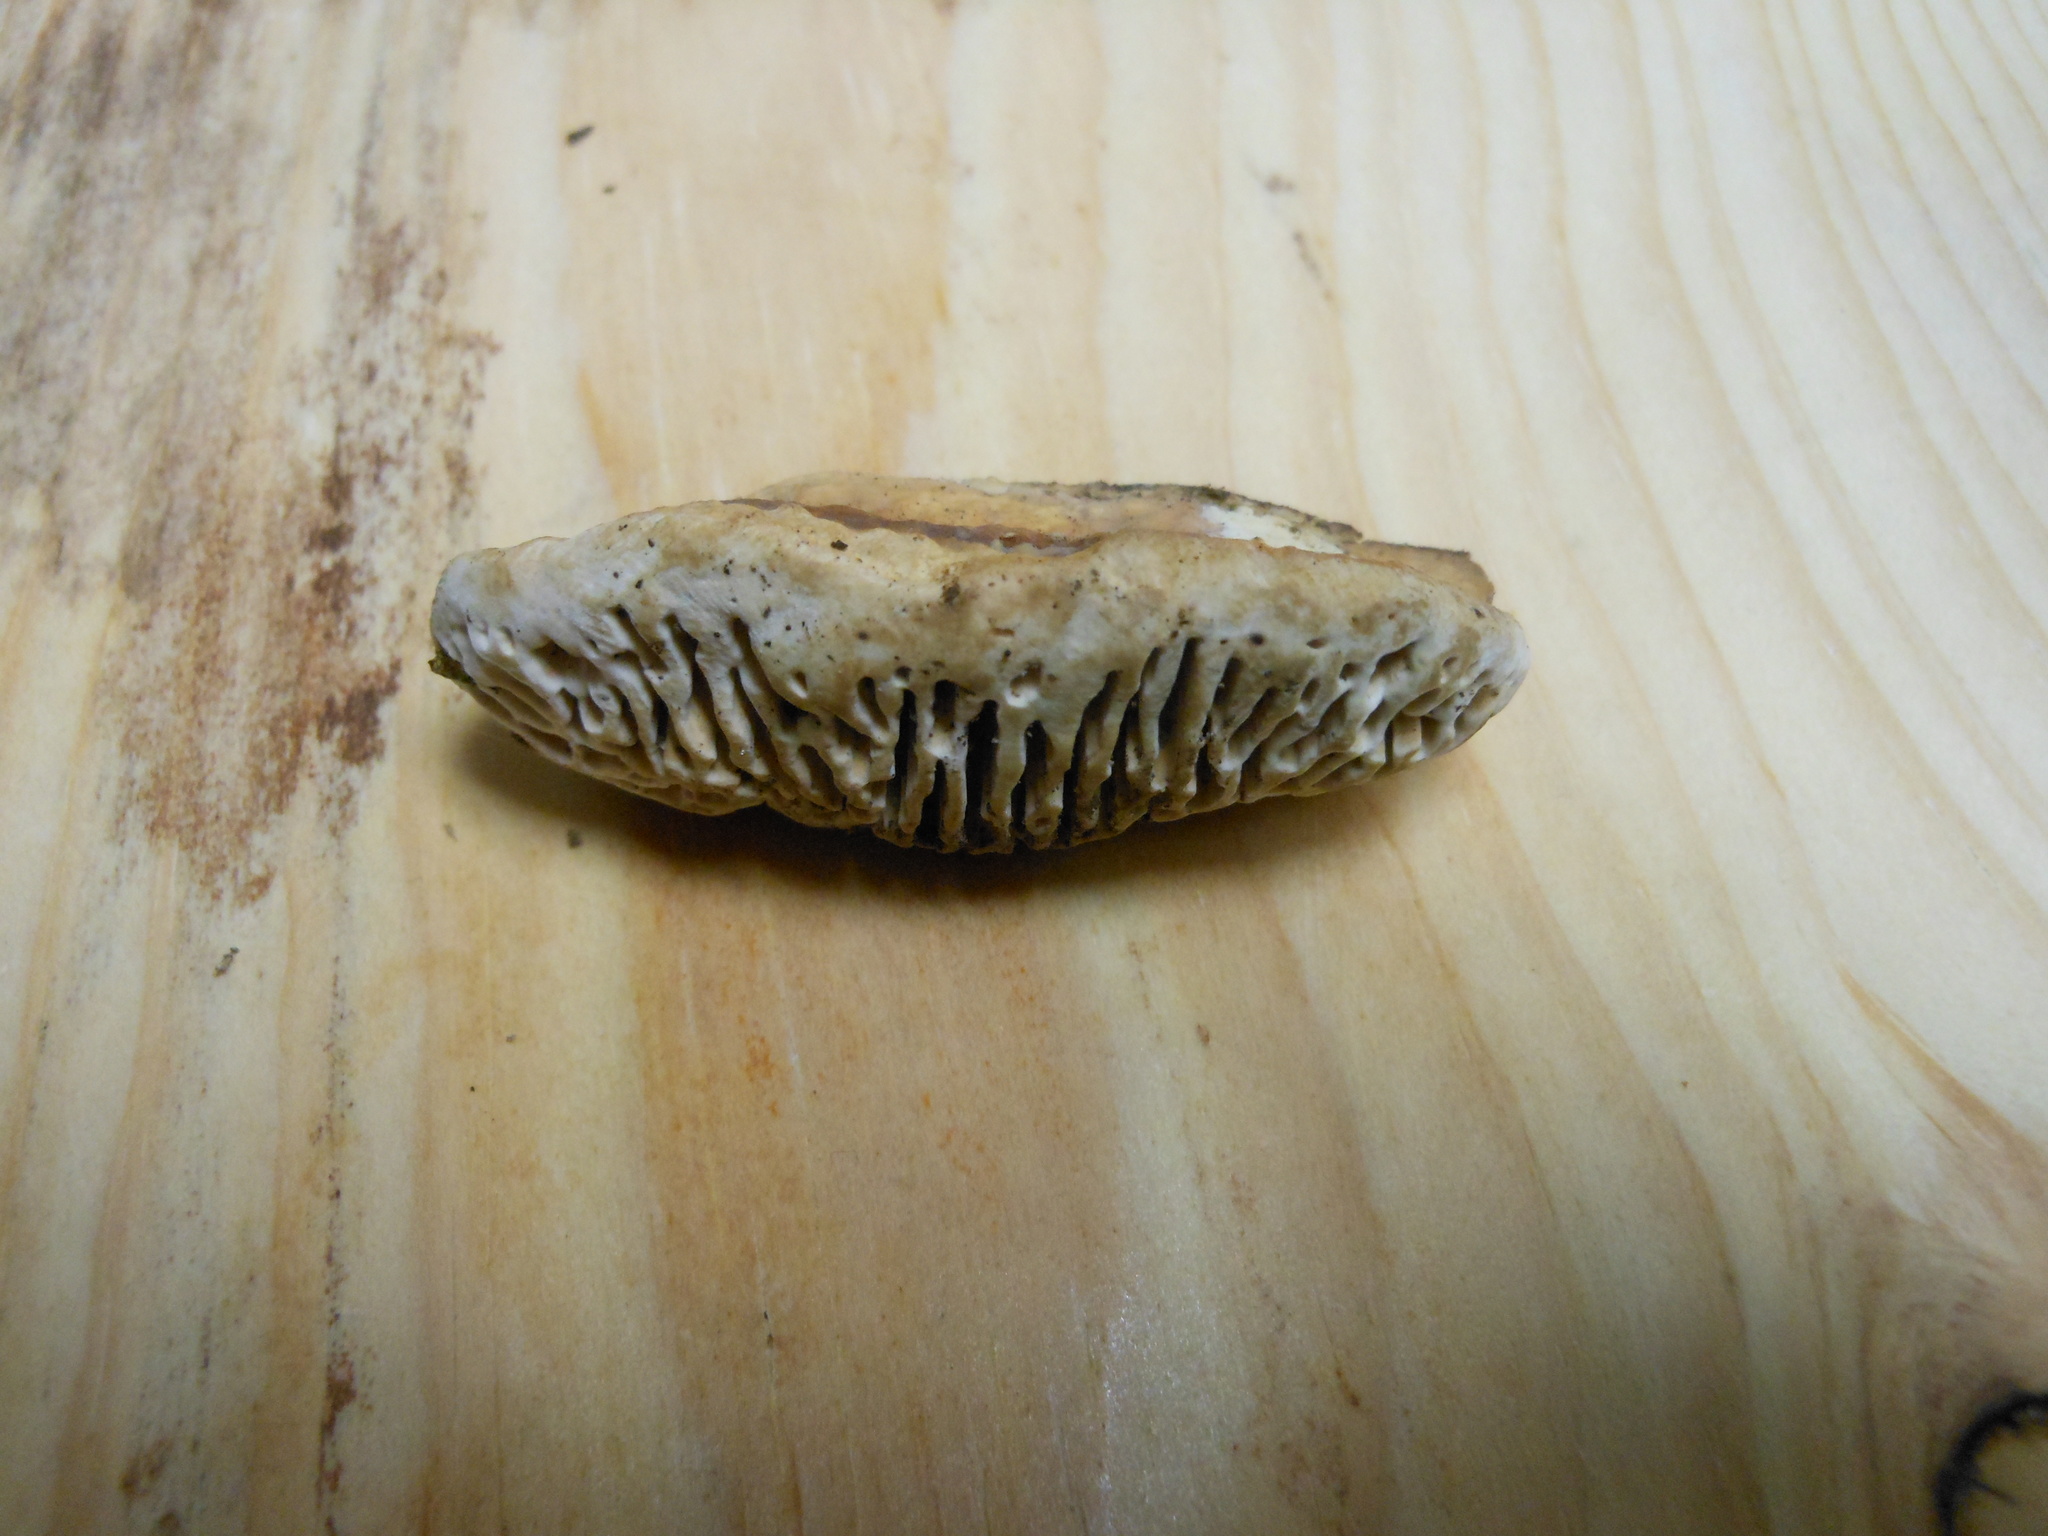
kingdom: Fungi
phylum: Basidiomycota
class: Agaricomycetes
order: Polyporales
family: Fomitopsidaceae
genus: Fomitopsis
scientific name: Fomitopsis
